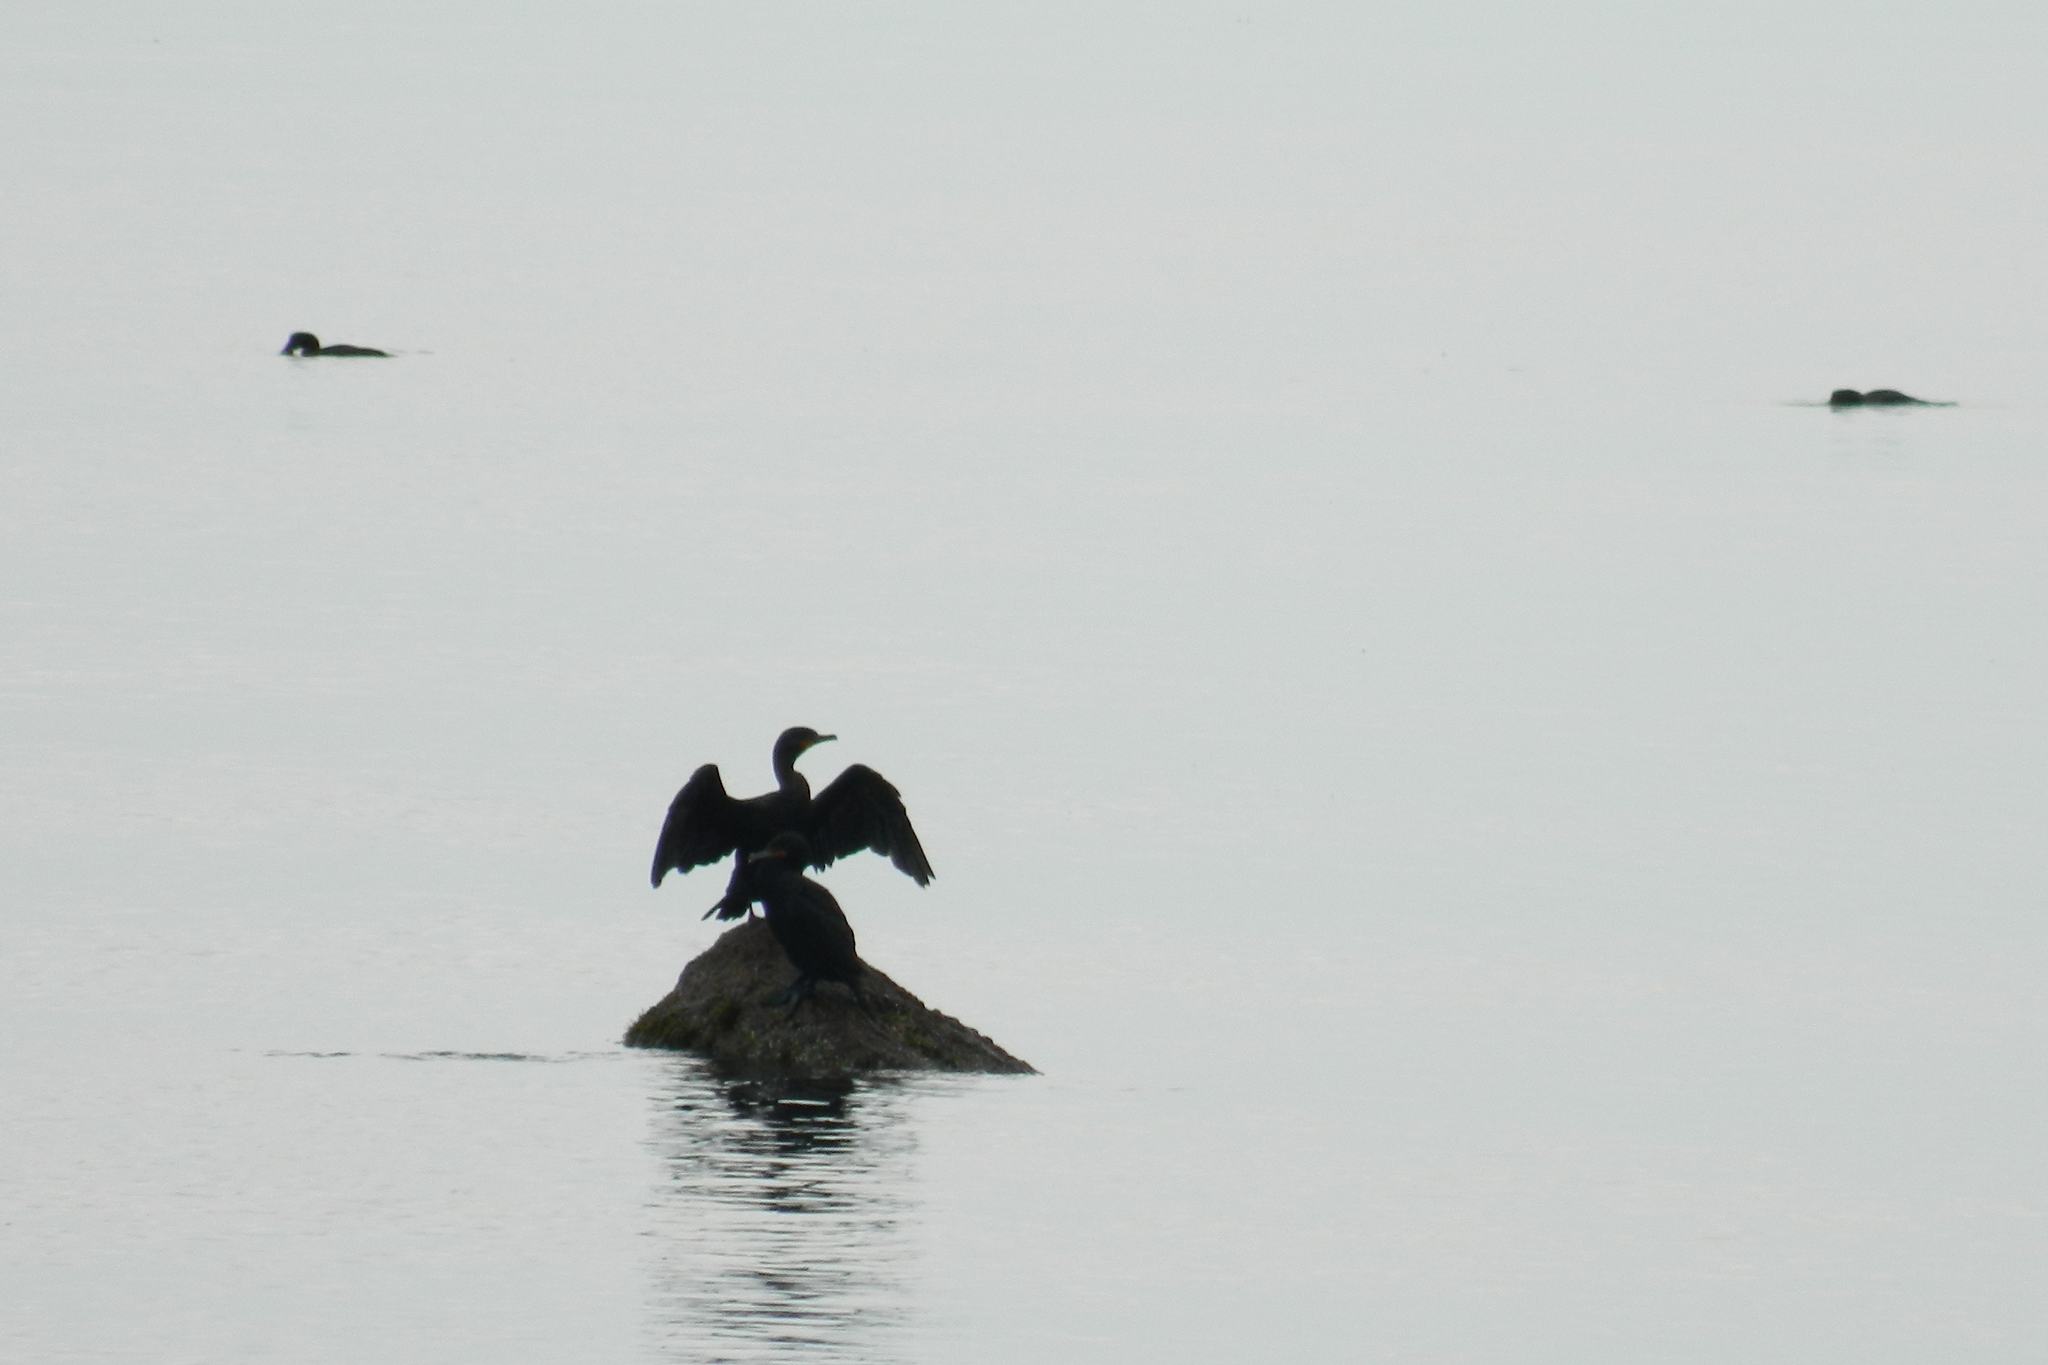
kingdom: Animalia
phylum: Chordata
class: Aves
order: Suliformes
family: Phalacrocoracidae
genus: Phalacrocorax
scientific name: Phalacrocorax auritus
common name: Double-crested cormorant
